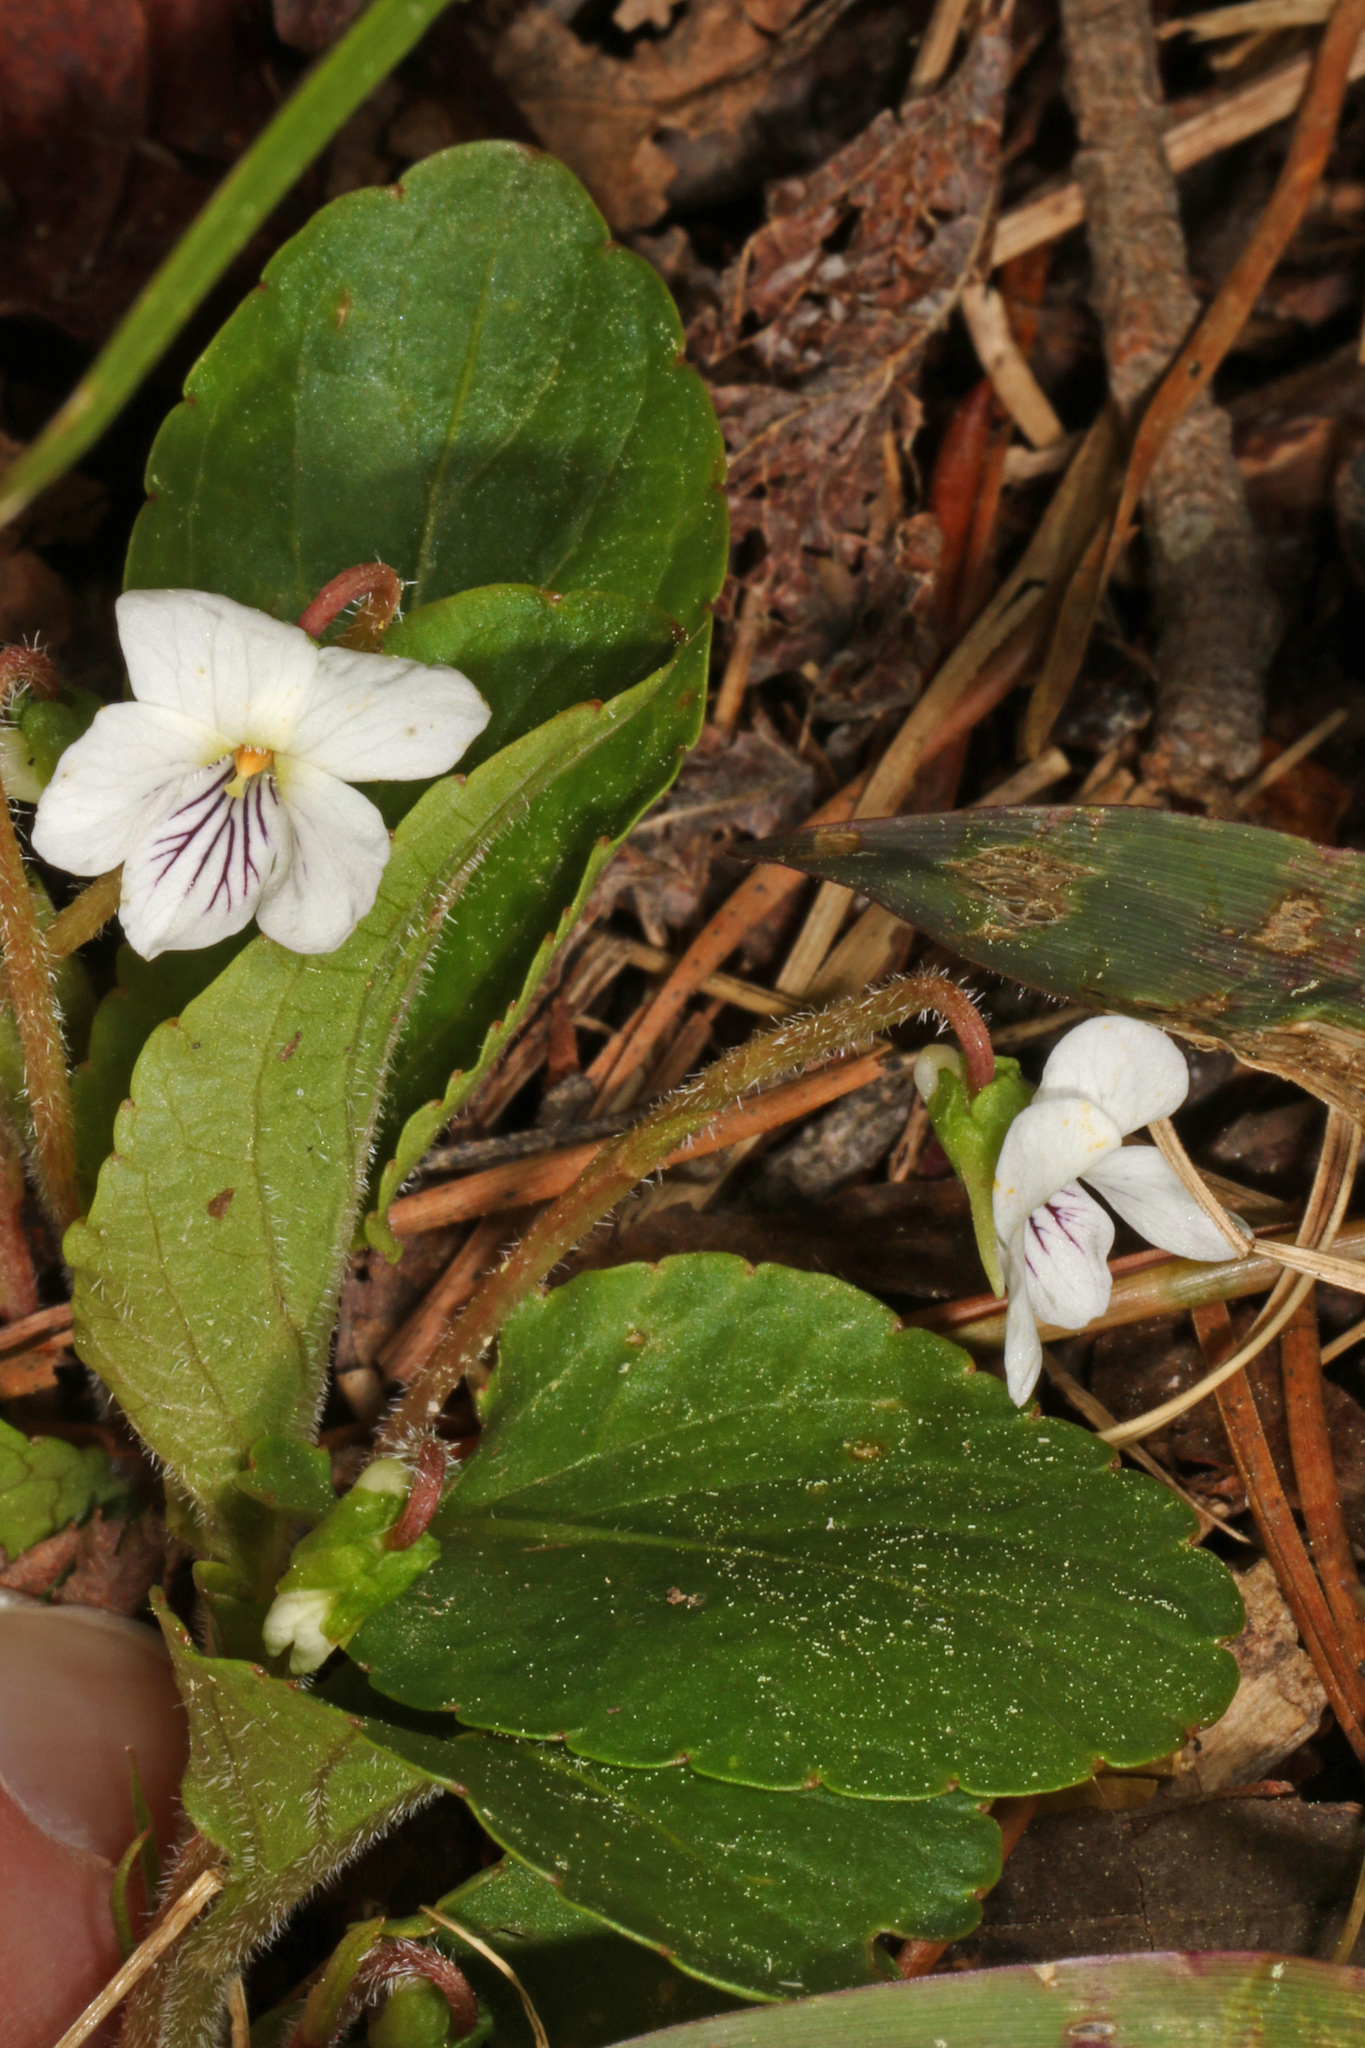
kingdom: Plantae
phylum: Tracheophyta
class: Magnoliopsida
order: Malpighiales
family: Violaceae
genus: Viola
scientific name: Viola primulifolia
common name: Primrose-leaf violet
